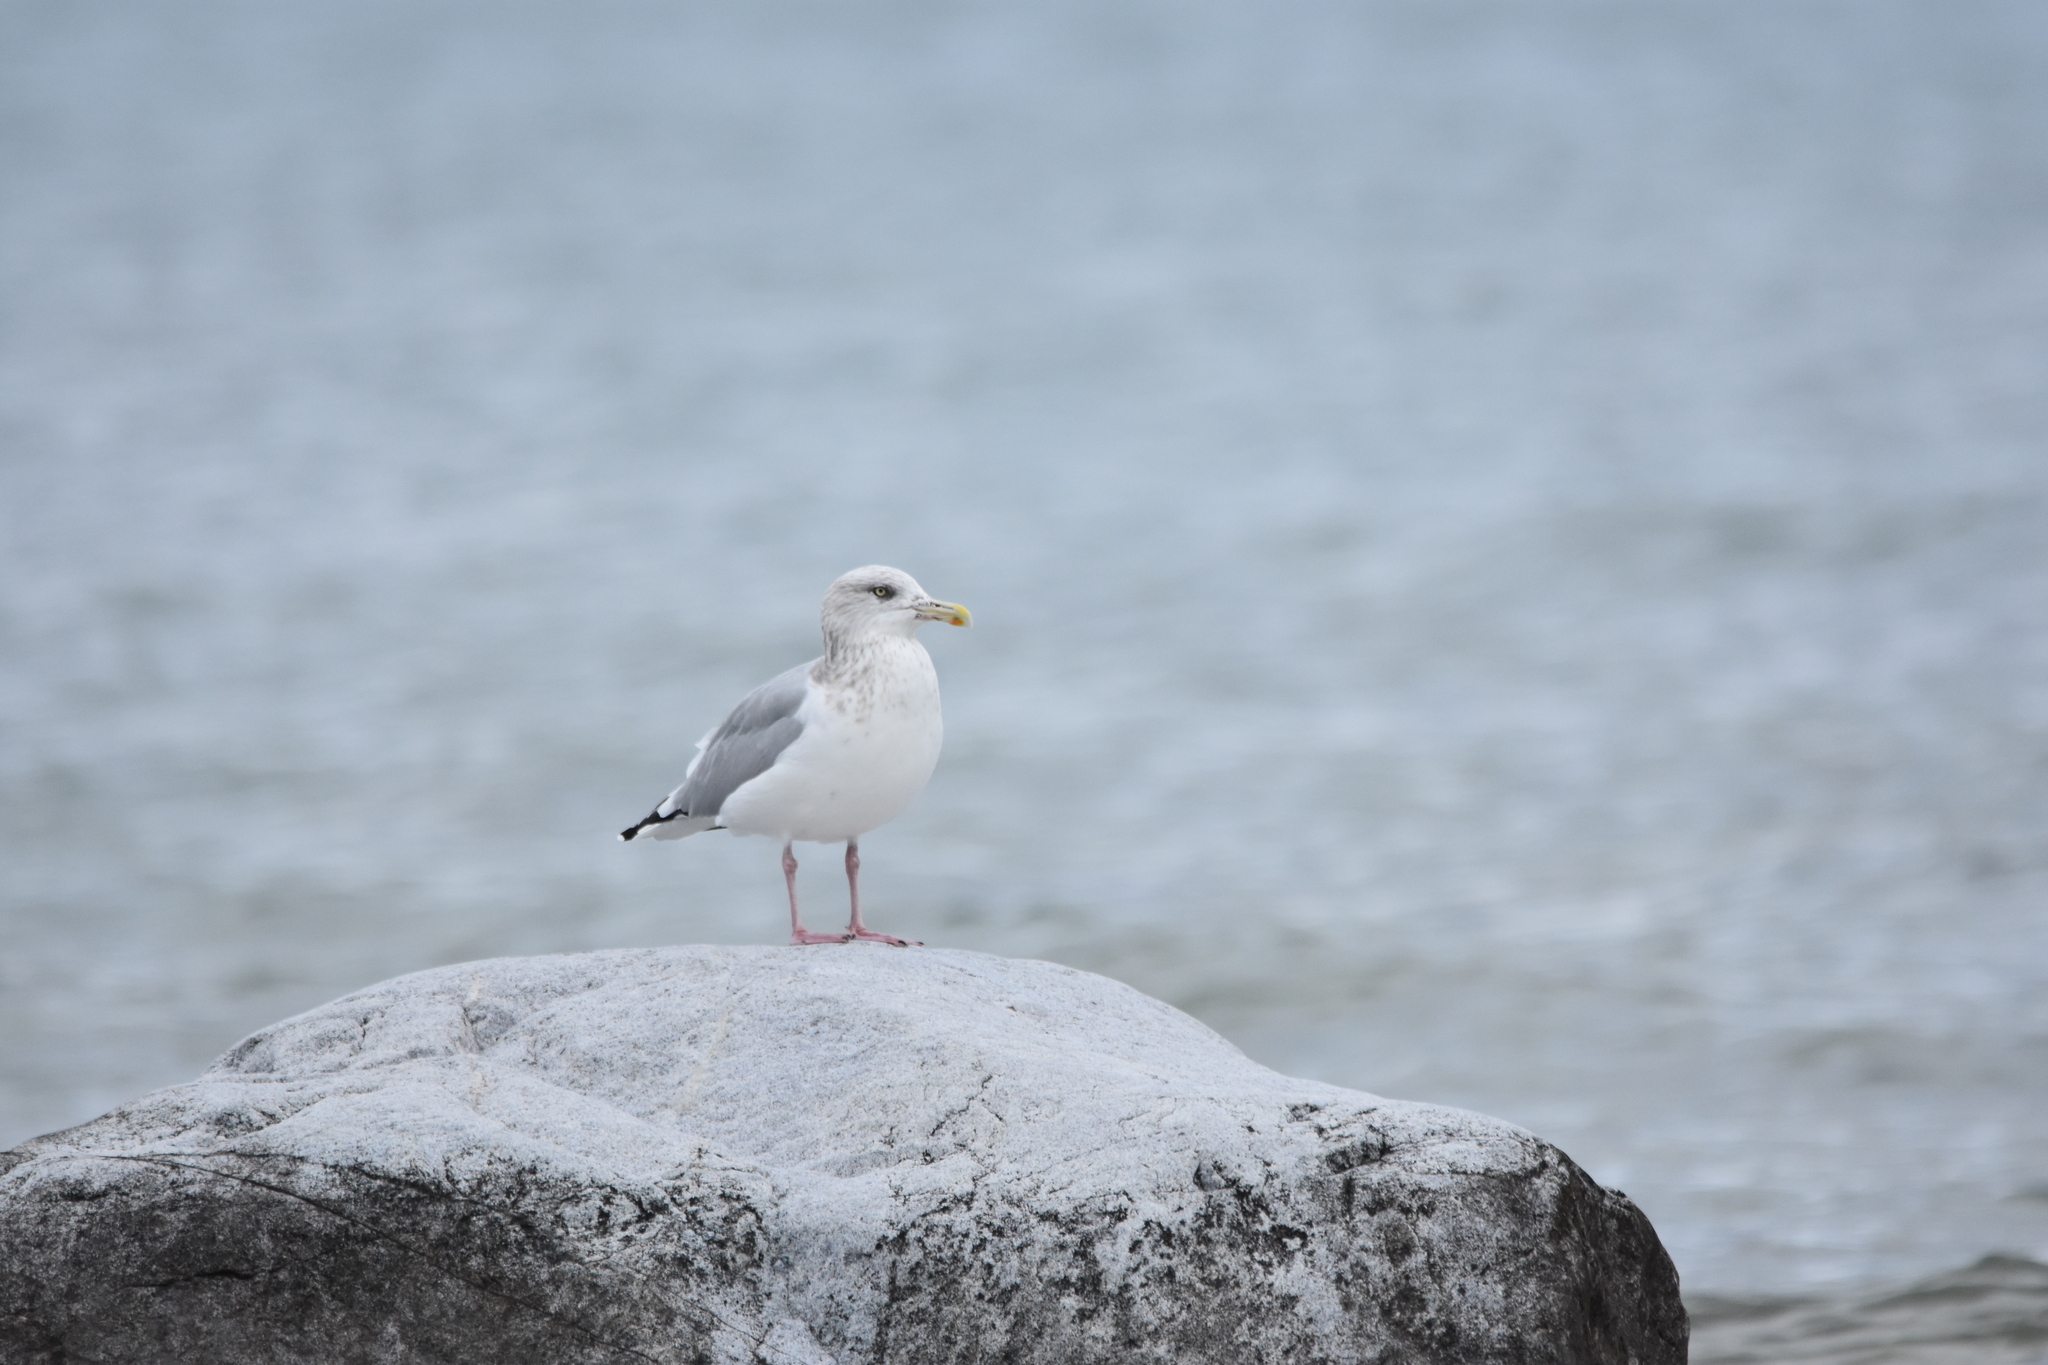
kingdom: Animalia
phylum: Chordata
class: Aves
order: Charadriiformes
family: Laridae
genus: Larus
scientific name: Larus argentatus
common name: Herring gull
